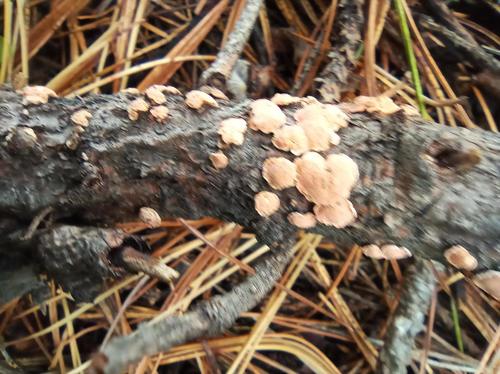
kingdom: Fungi
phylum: Basidiomycota
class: Agaricomycetes
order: Russulales
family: Stereaceae
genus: Aleurodiscus
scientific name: Aleurodiscus amorphus
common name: Orange discus
